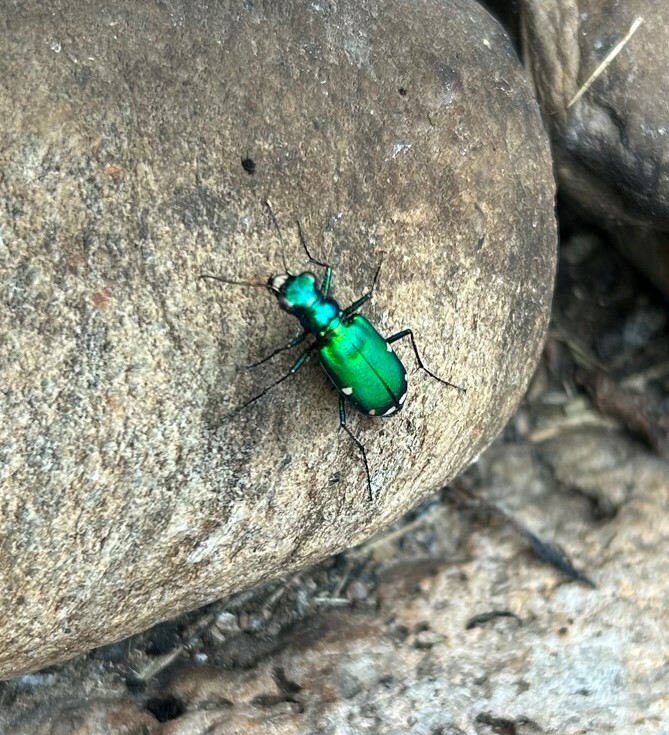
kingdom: Animalia
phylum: Arthropoda
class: Insecta
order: Coleoptera
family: Carabidae
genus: Cicindela
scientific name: Cicindela sexguttata
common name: Six-spotted tiger beetle
